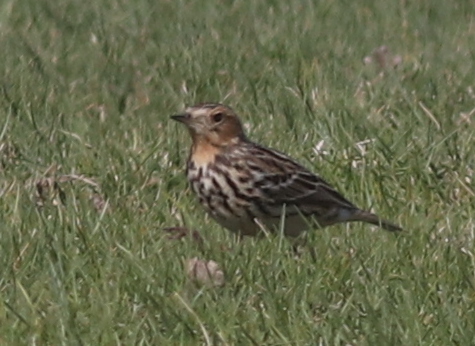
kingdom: Animalia
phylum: Chordata
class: Aves
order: Passeriformes
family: Motacillidae
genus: Anthus
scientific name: Anthus cervinus
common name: Red-throated pipit
